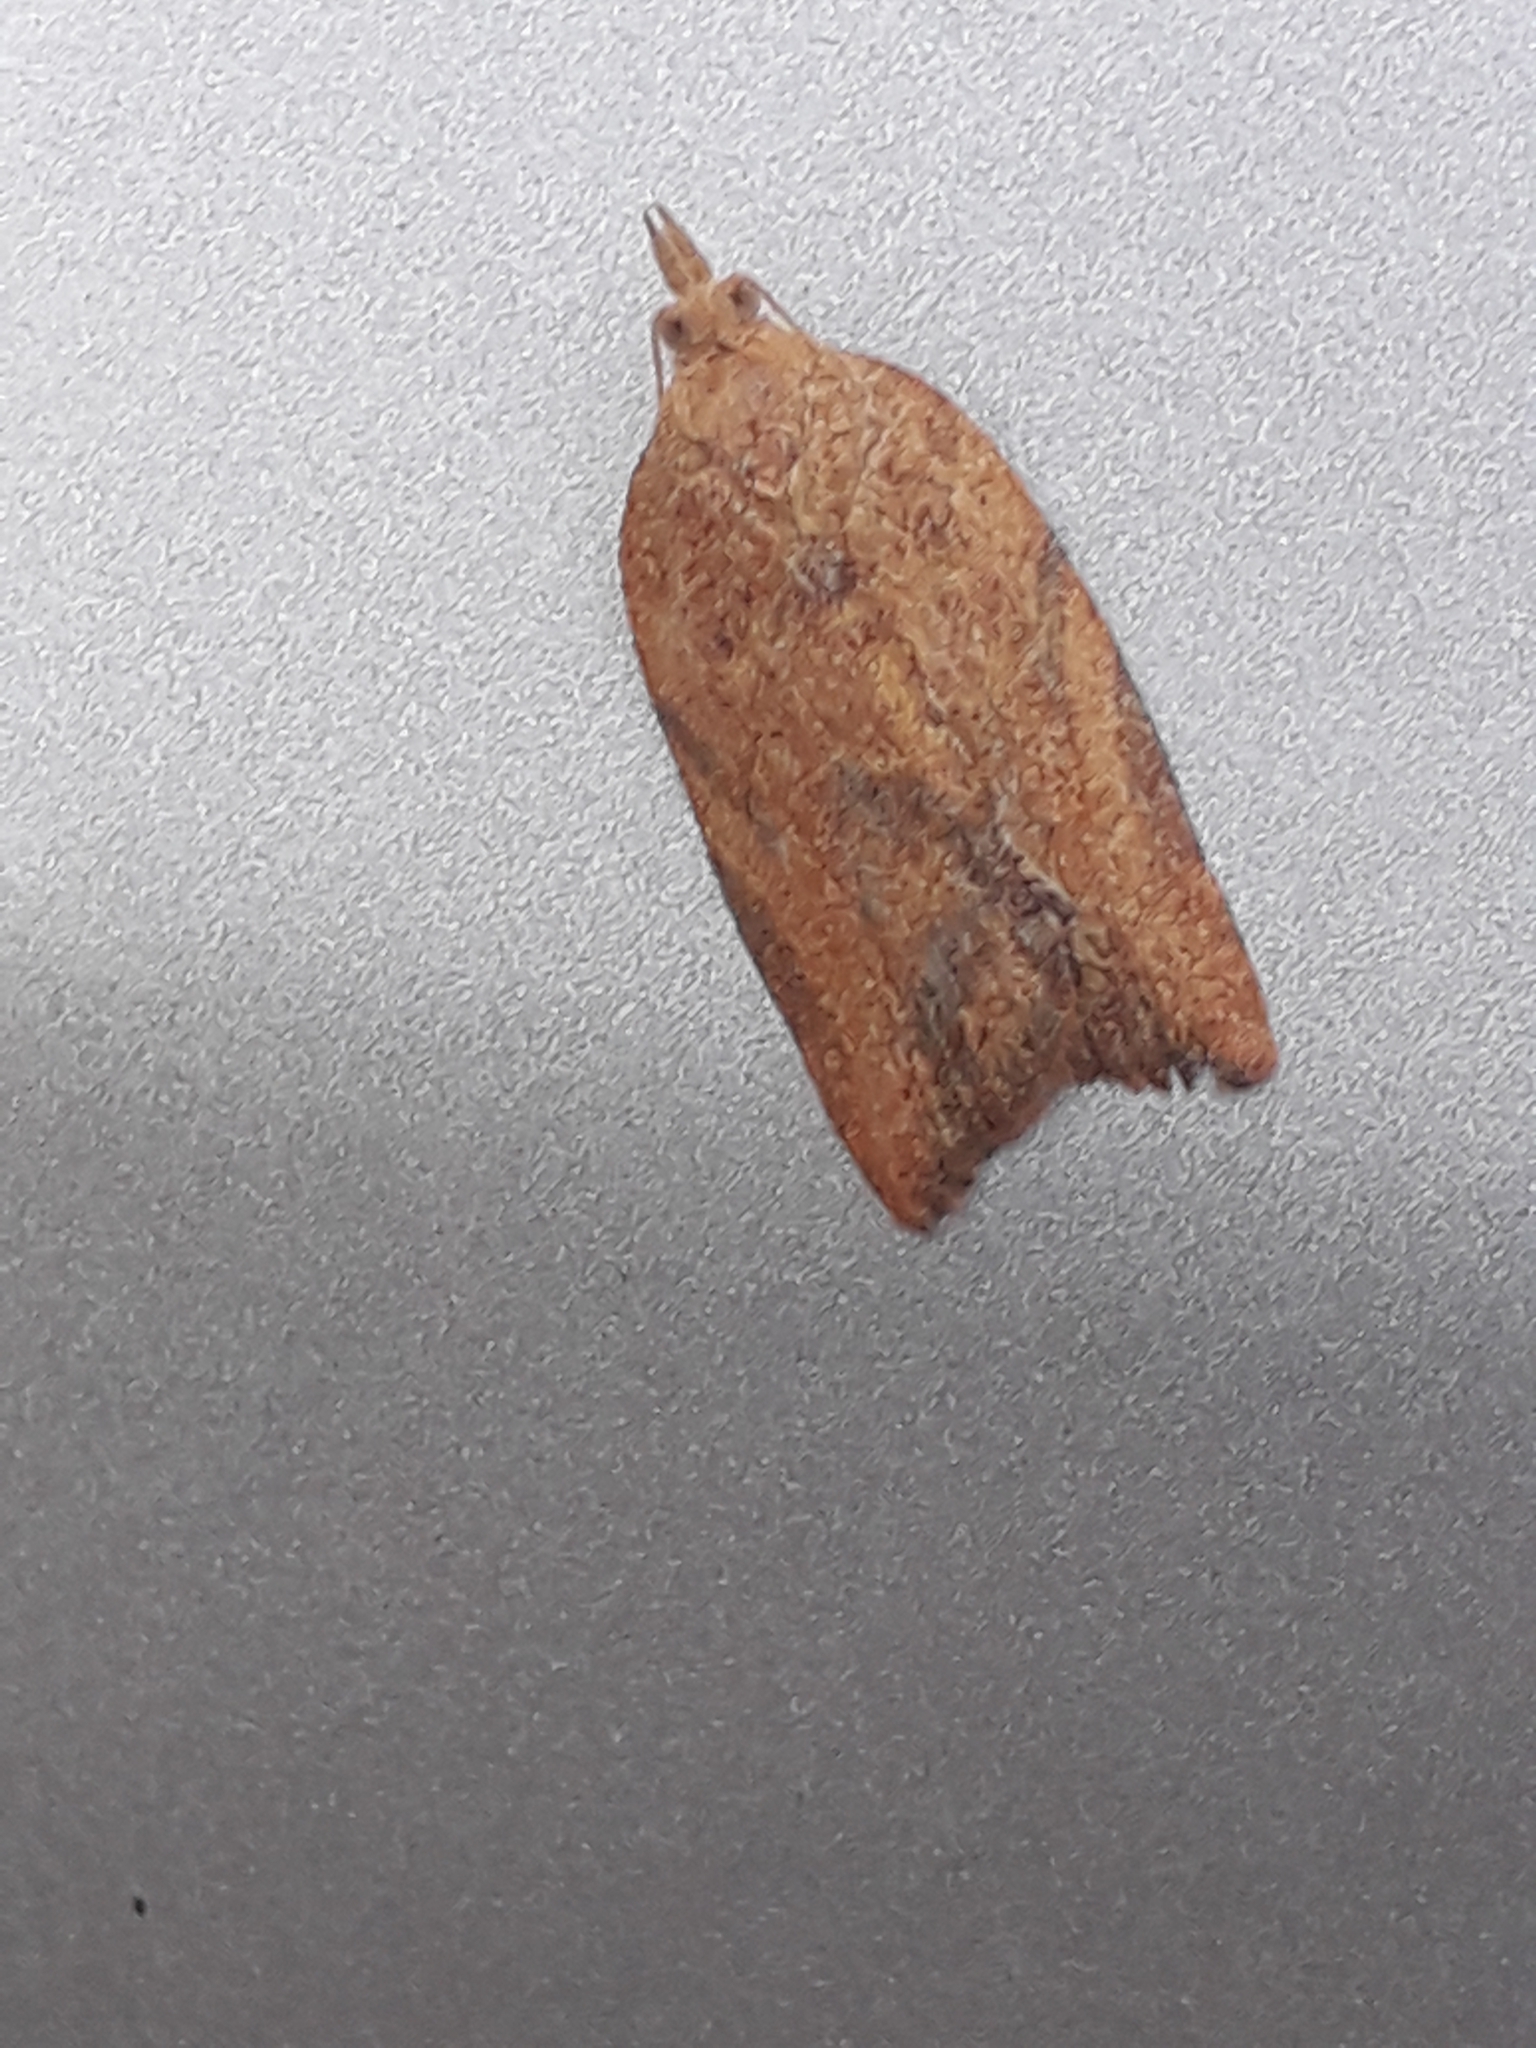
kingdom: Animalia
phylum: Arthropoda
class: Insecta
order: Lepidoptera
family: Tortricidae
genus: Epiphyas
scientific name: Epiphyas postvittana
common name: Light brown apple moth
